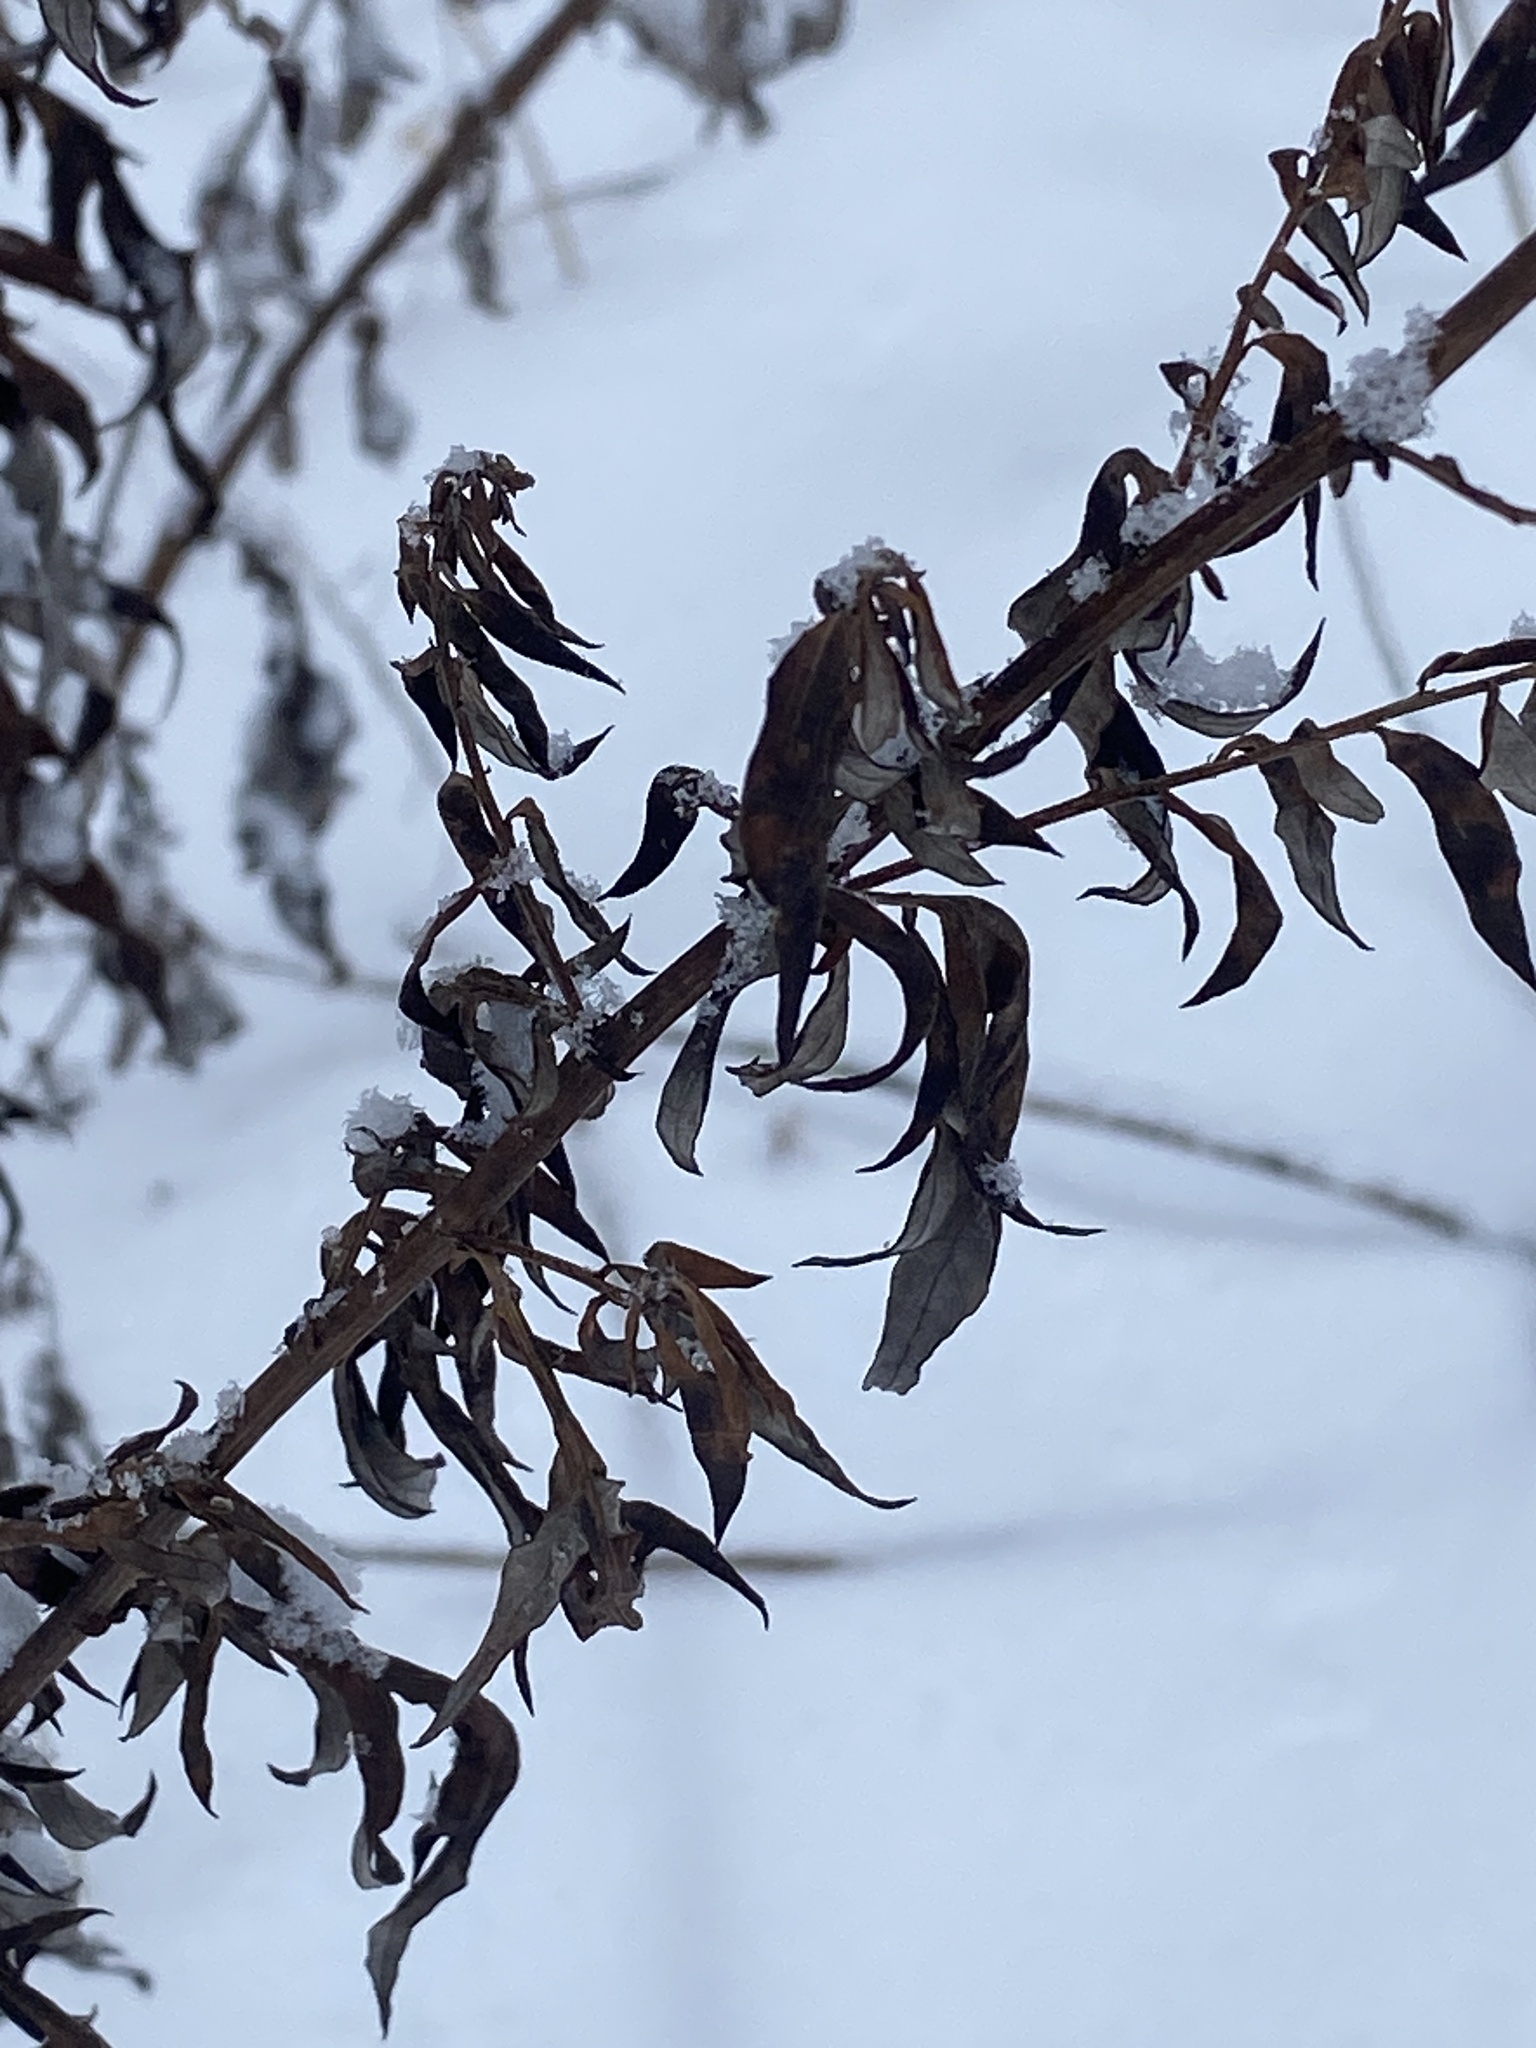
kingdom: Plantae
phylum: Tracheophyta
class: Magnoliopsida
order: Asterales
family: Asteraceae
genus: Artemisia
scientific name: Artemisia vulgaris
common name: Mugwort
